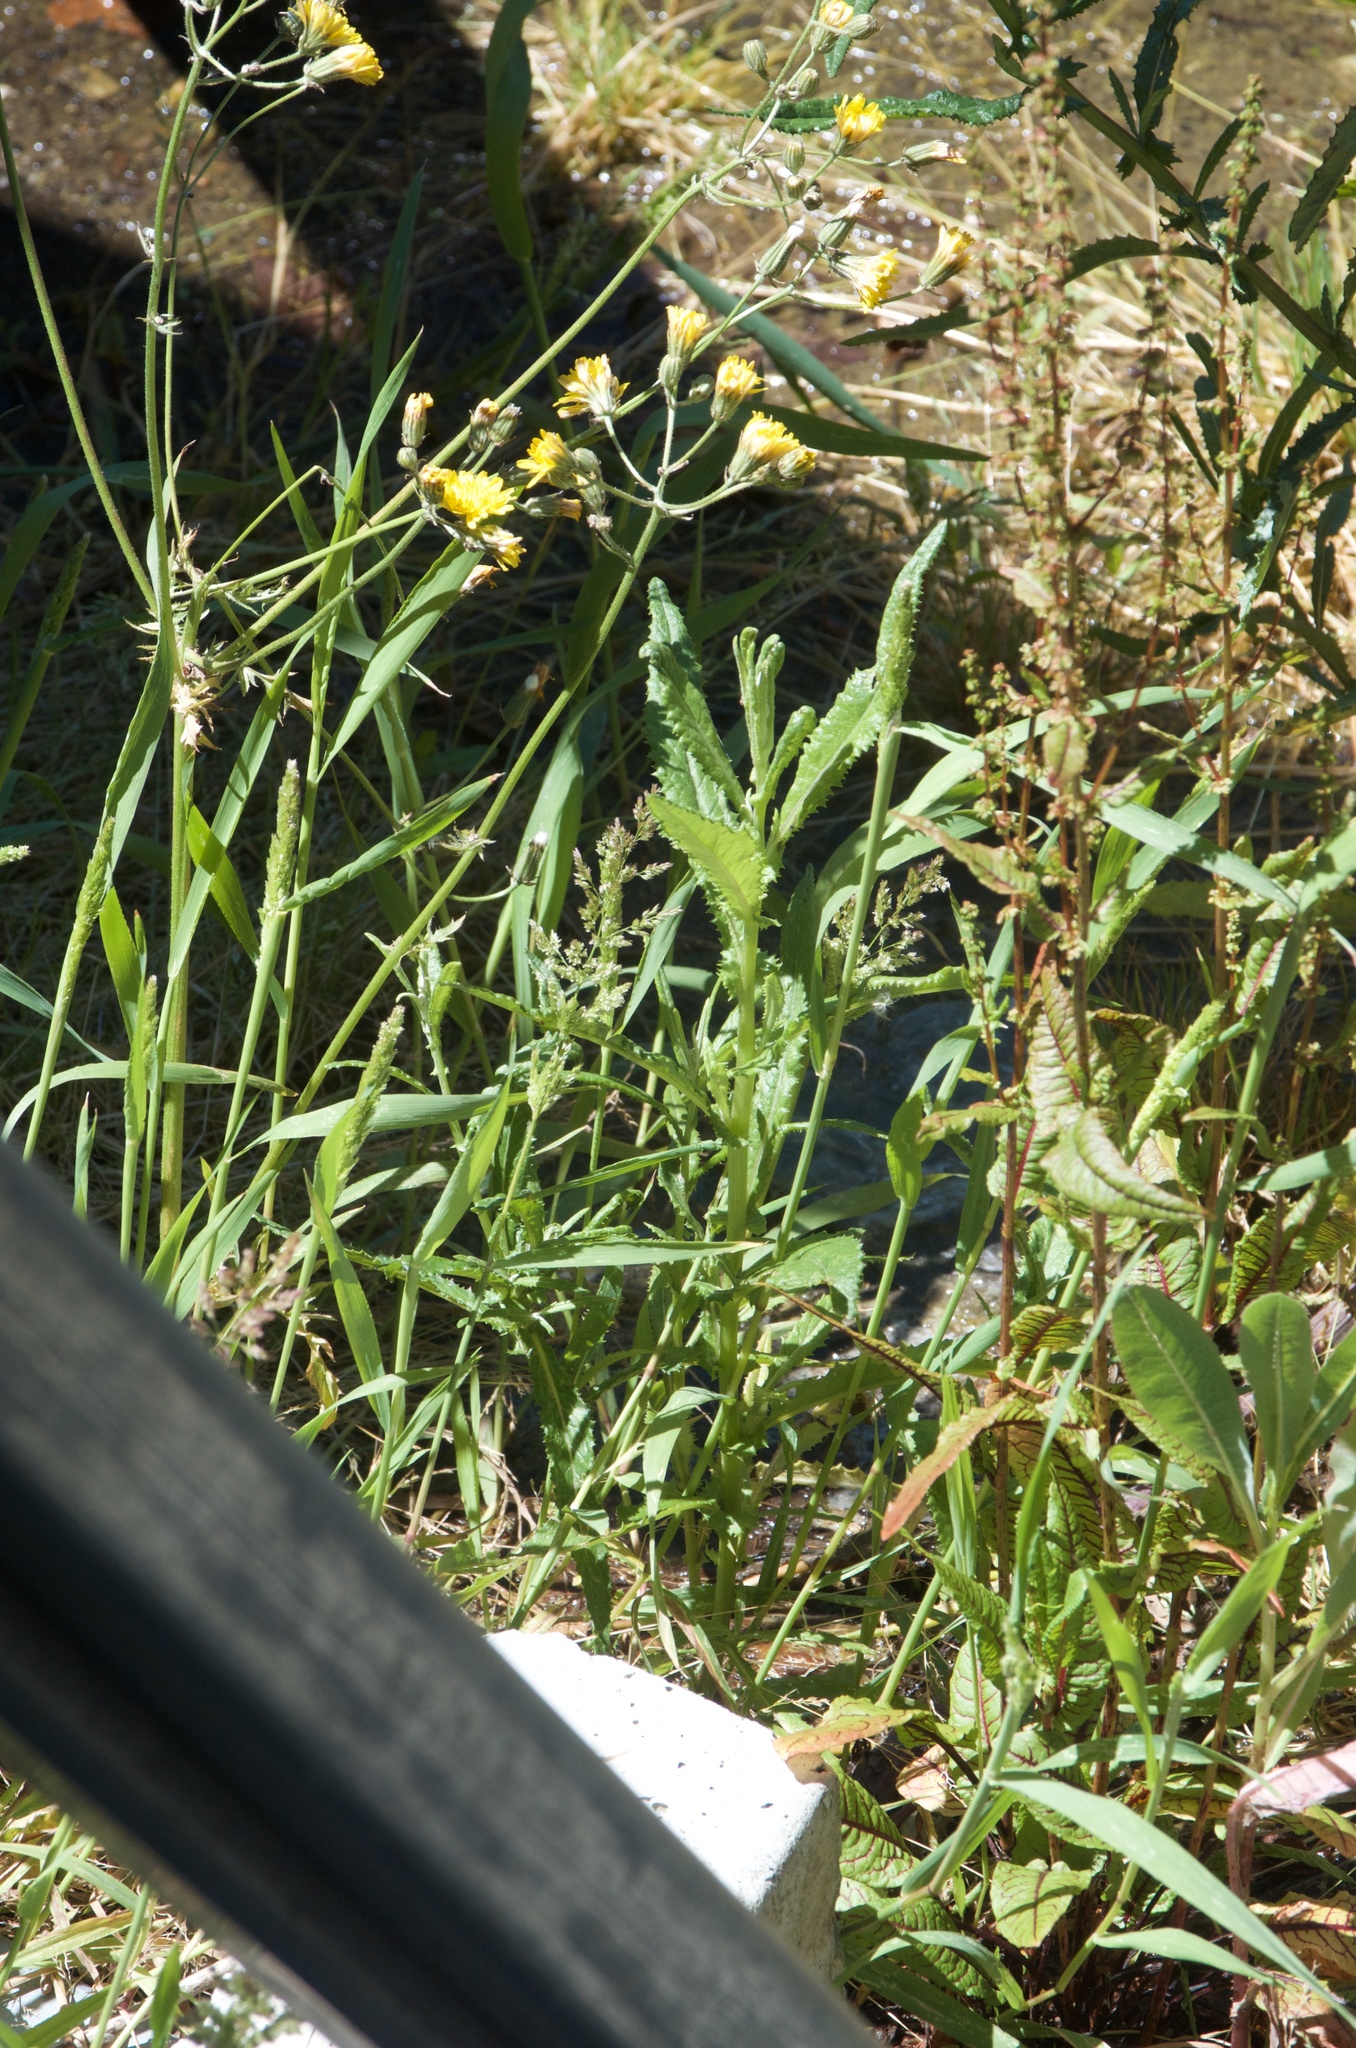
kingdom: Plantae
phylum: Tracheophyta
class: Magnoliopsida
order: Asterales
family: Asteraceae
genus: Senecio
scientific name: Senecio minimus
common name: Toothed fireweed
